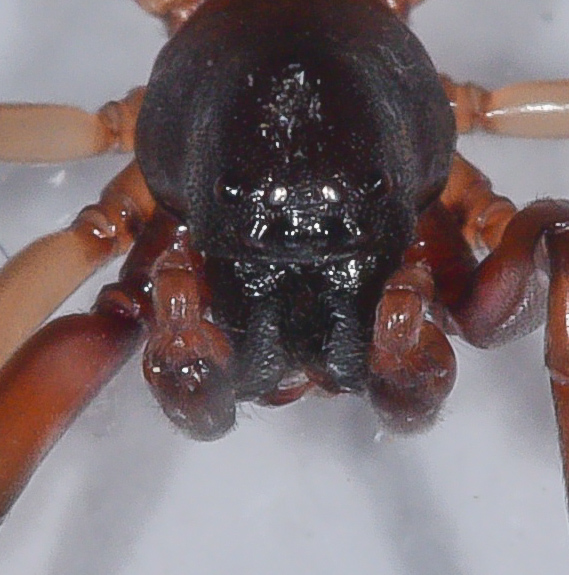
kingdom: Animalia
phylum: Arthropoda
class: Arachnida
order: Araneae
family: Trachelidae
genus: Trachelas
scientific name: Trachelas pacificus
